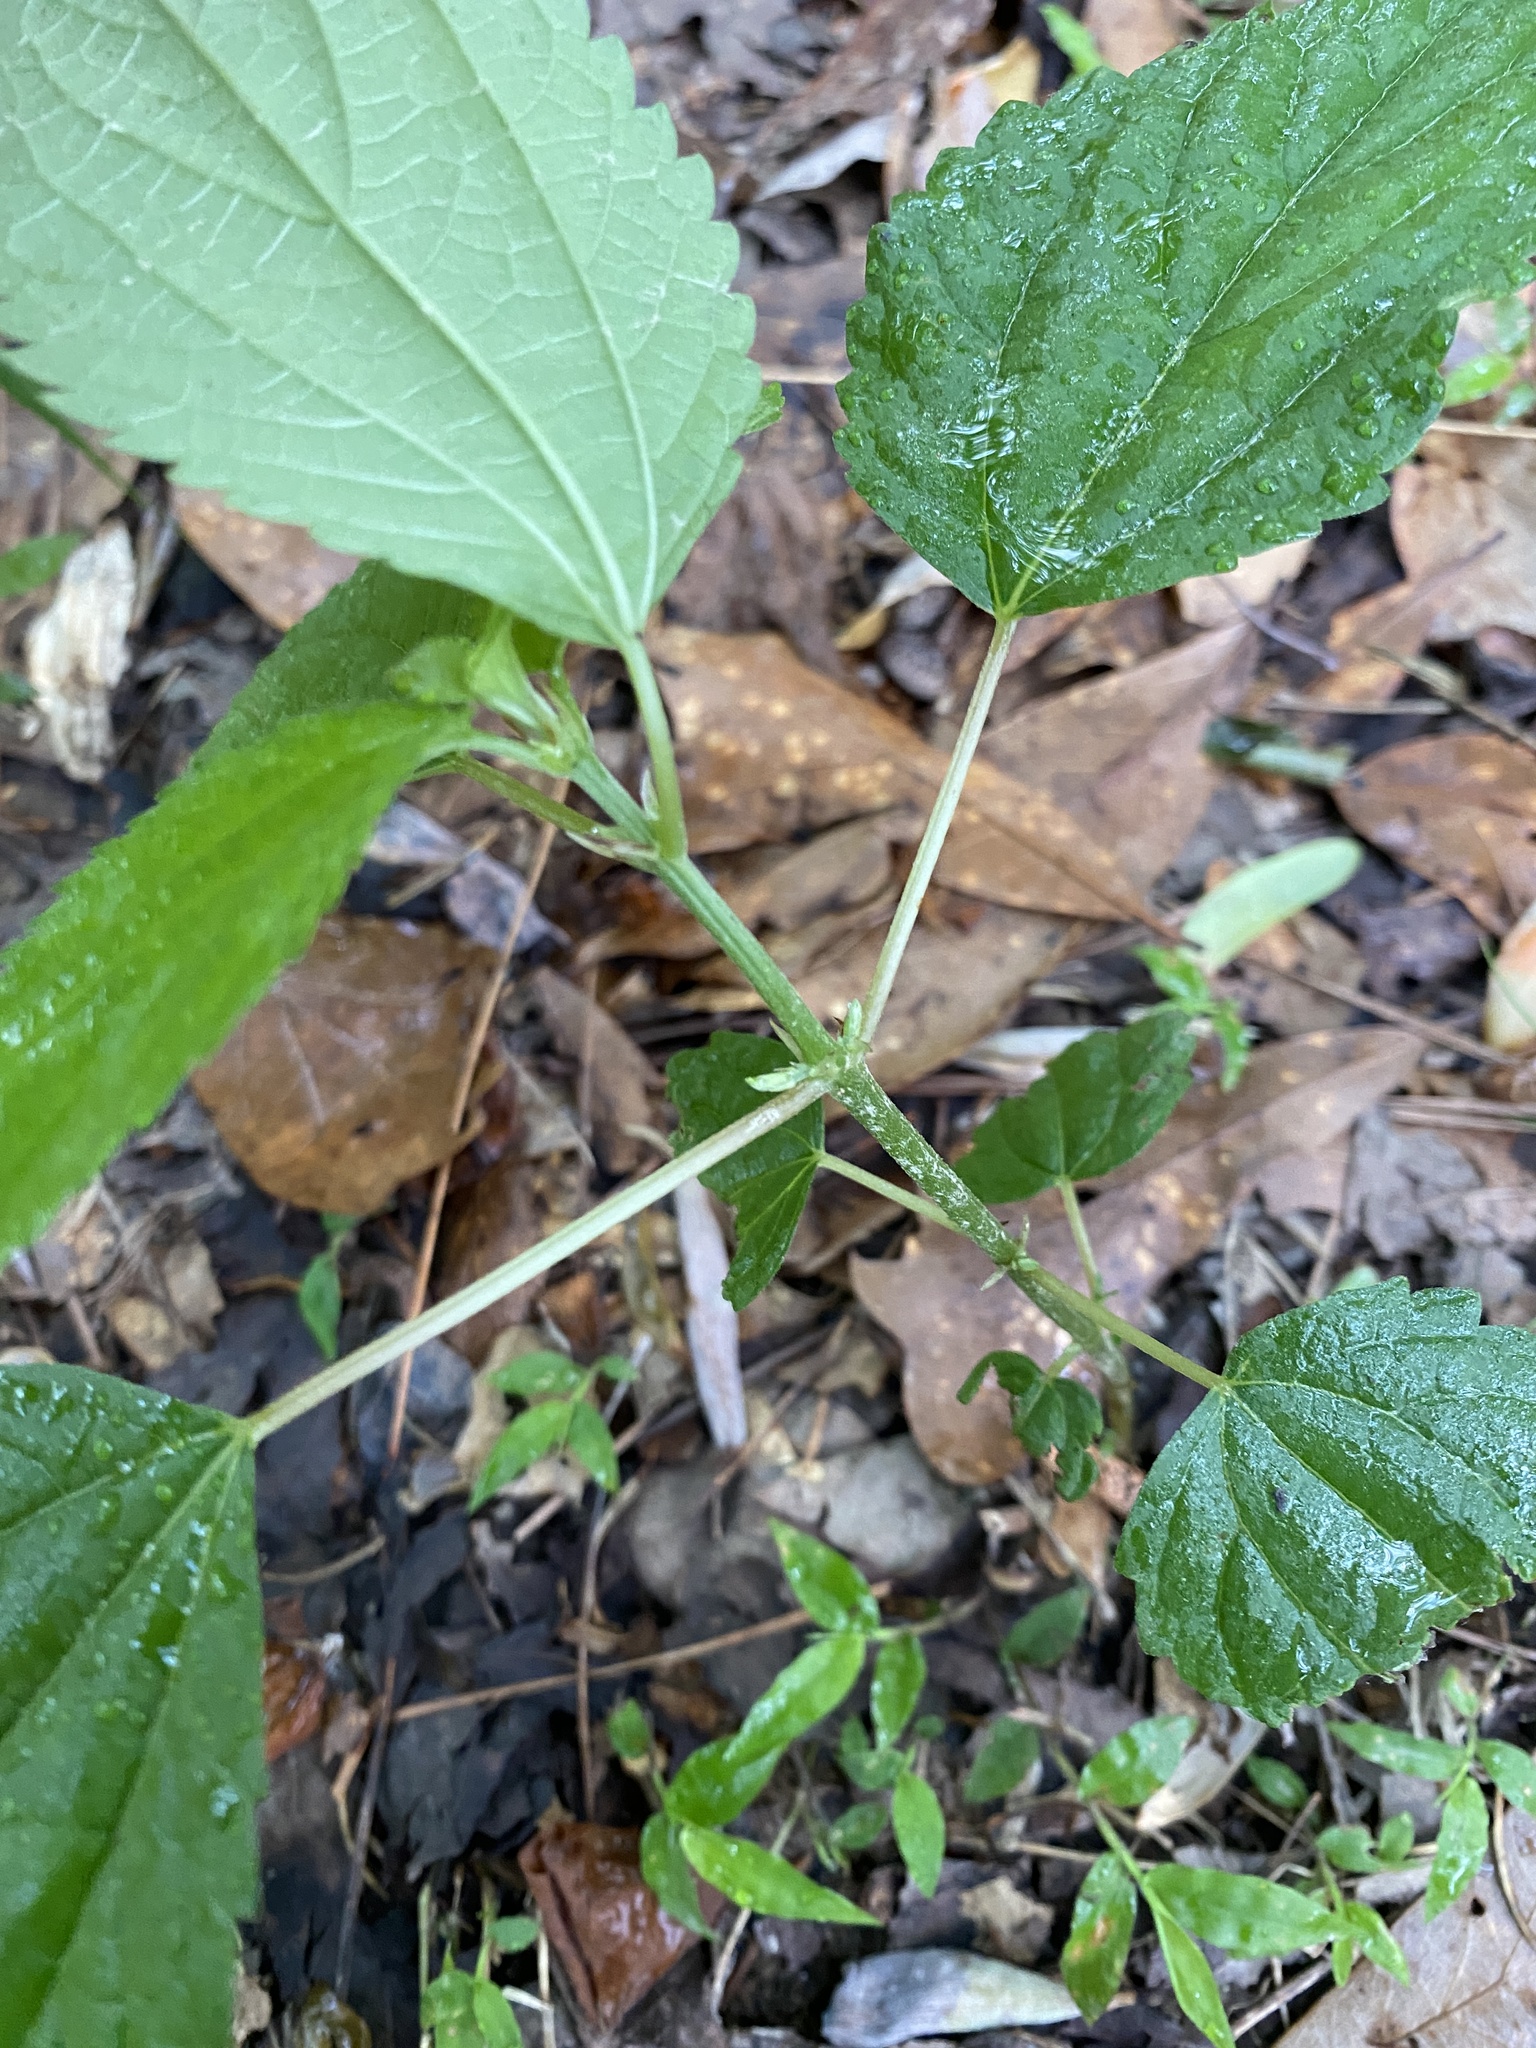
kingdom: Plantae
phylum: Tracheophyta
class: Magnoliopsida
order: Rosales
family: Urticaceae
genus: Boehmeria
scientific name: Boehmeria cylindrica
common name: Bog-hemp
